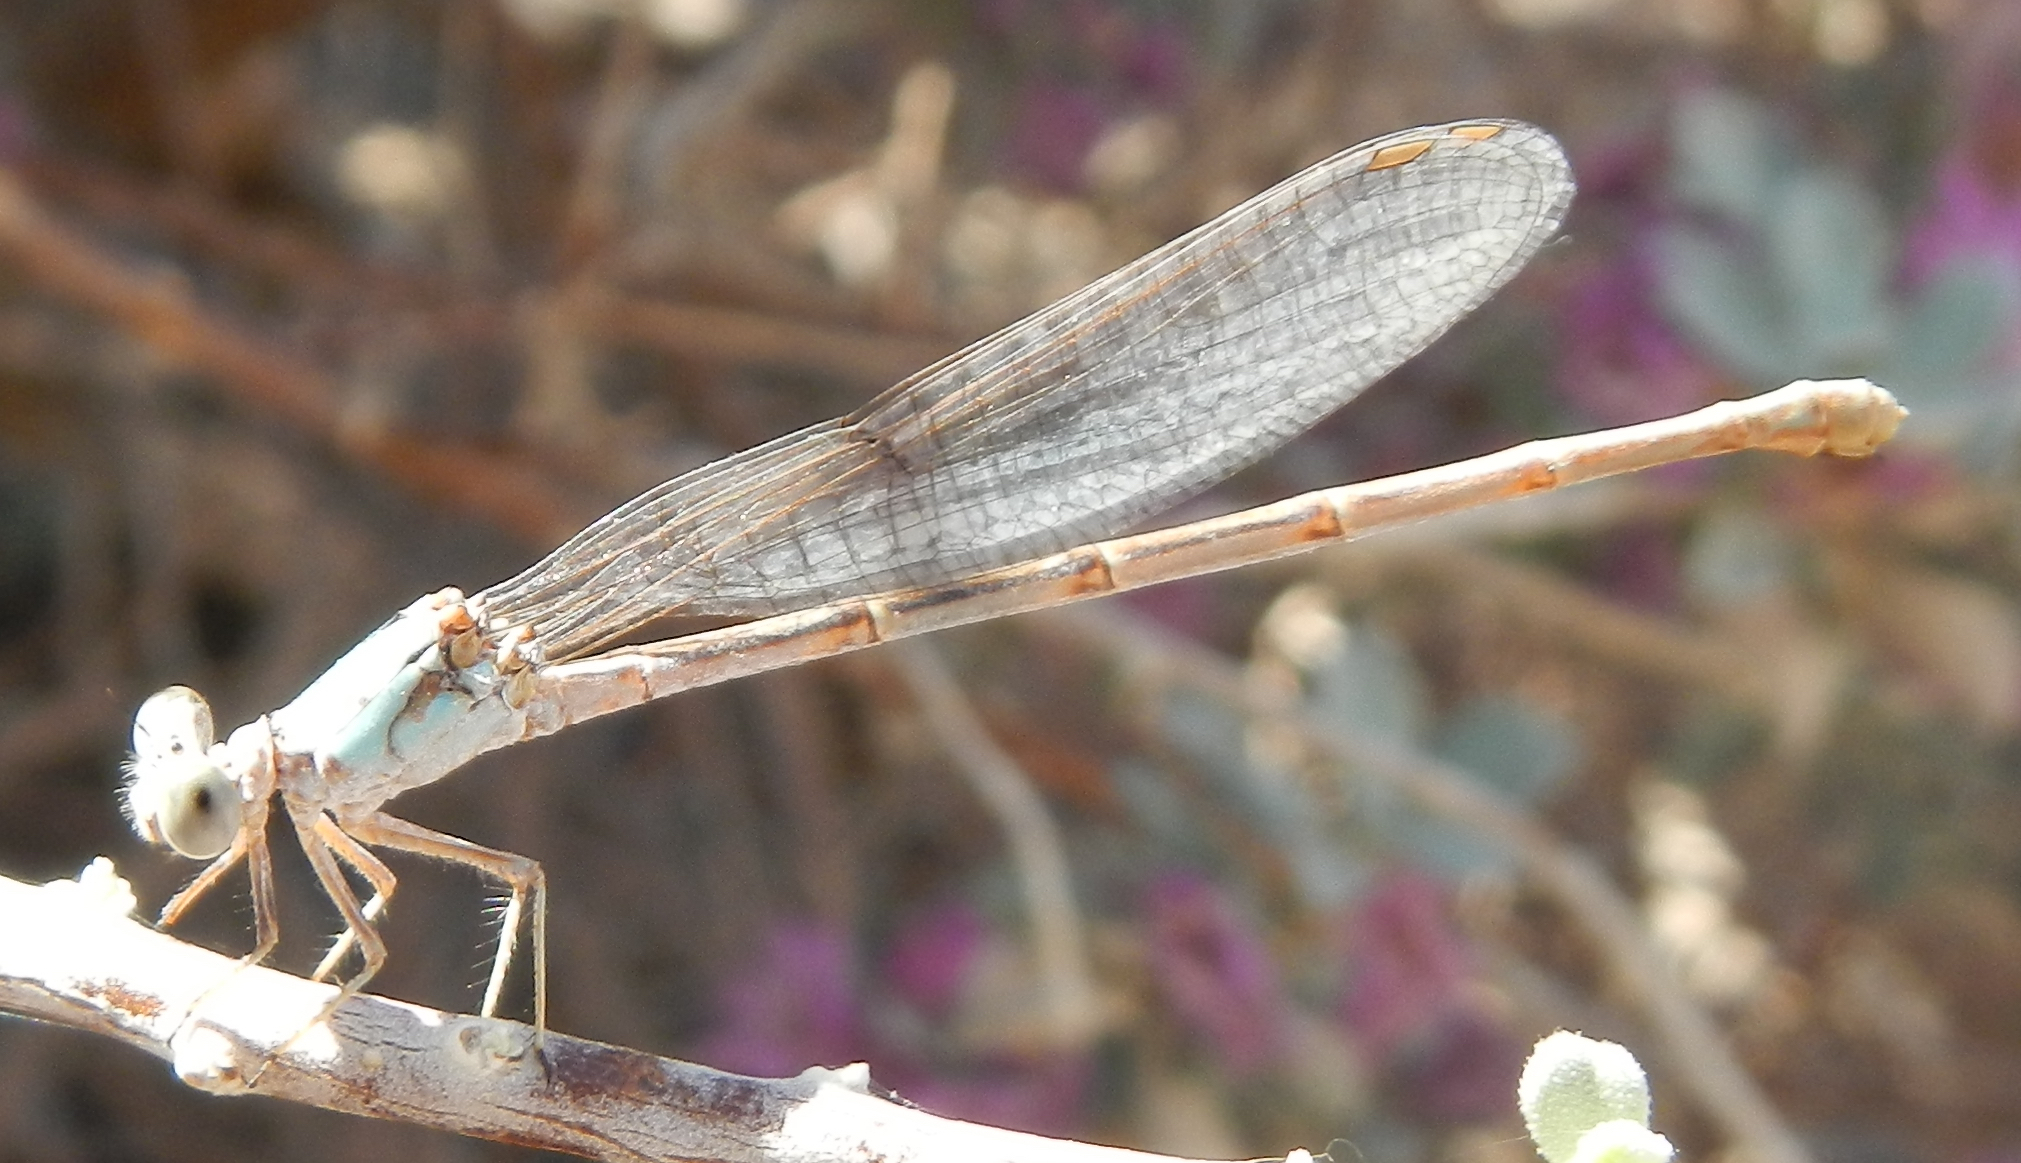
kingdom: Animalia
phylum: Arthropoda
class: Insecta
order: Odonata
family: Coenagrionidae
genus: Argia
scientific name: Argia moesta
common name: Powdered dancer
